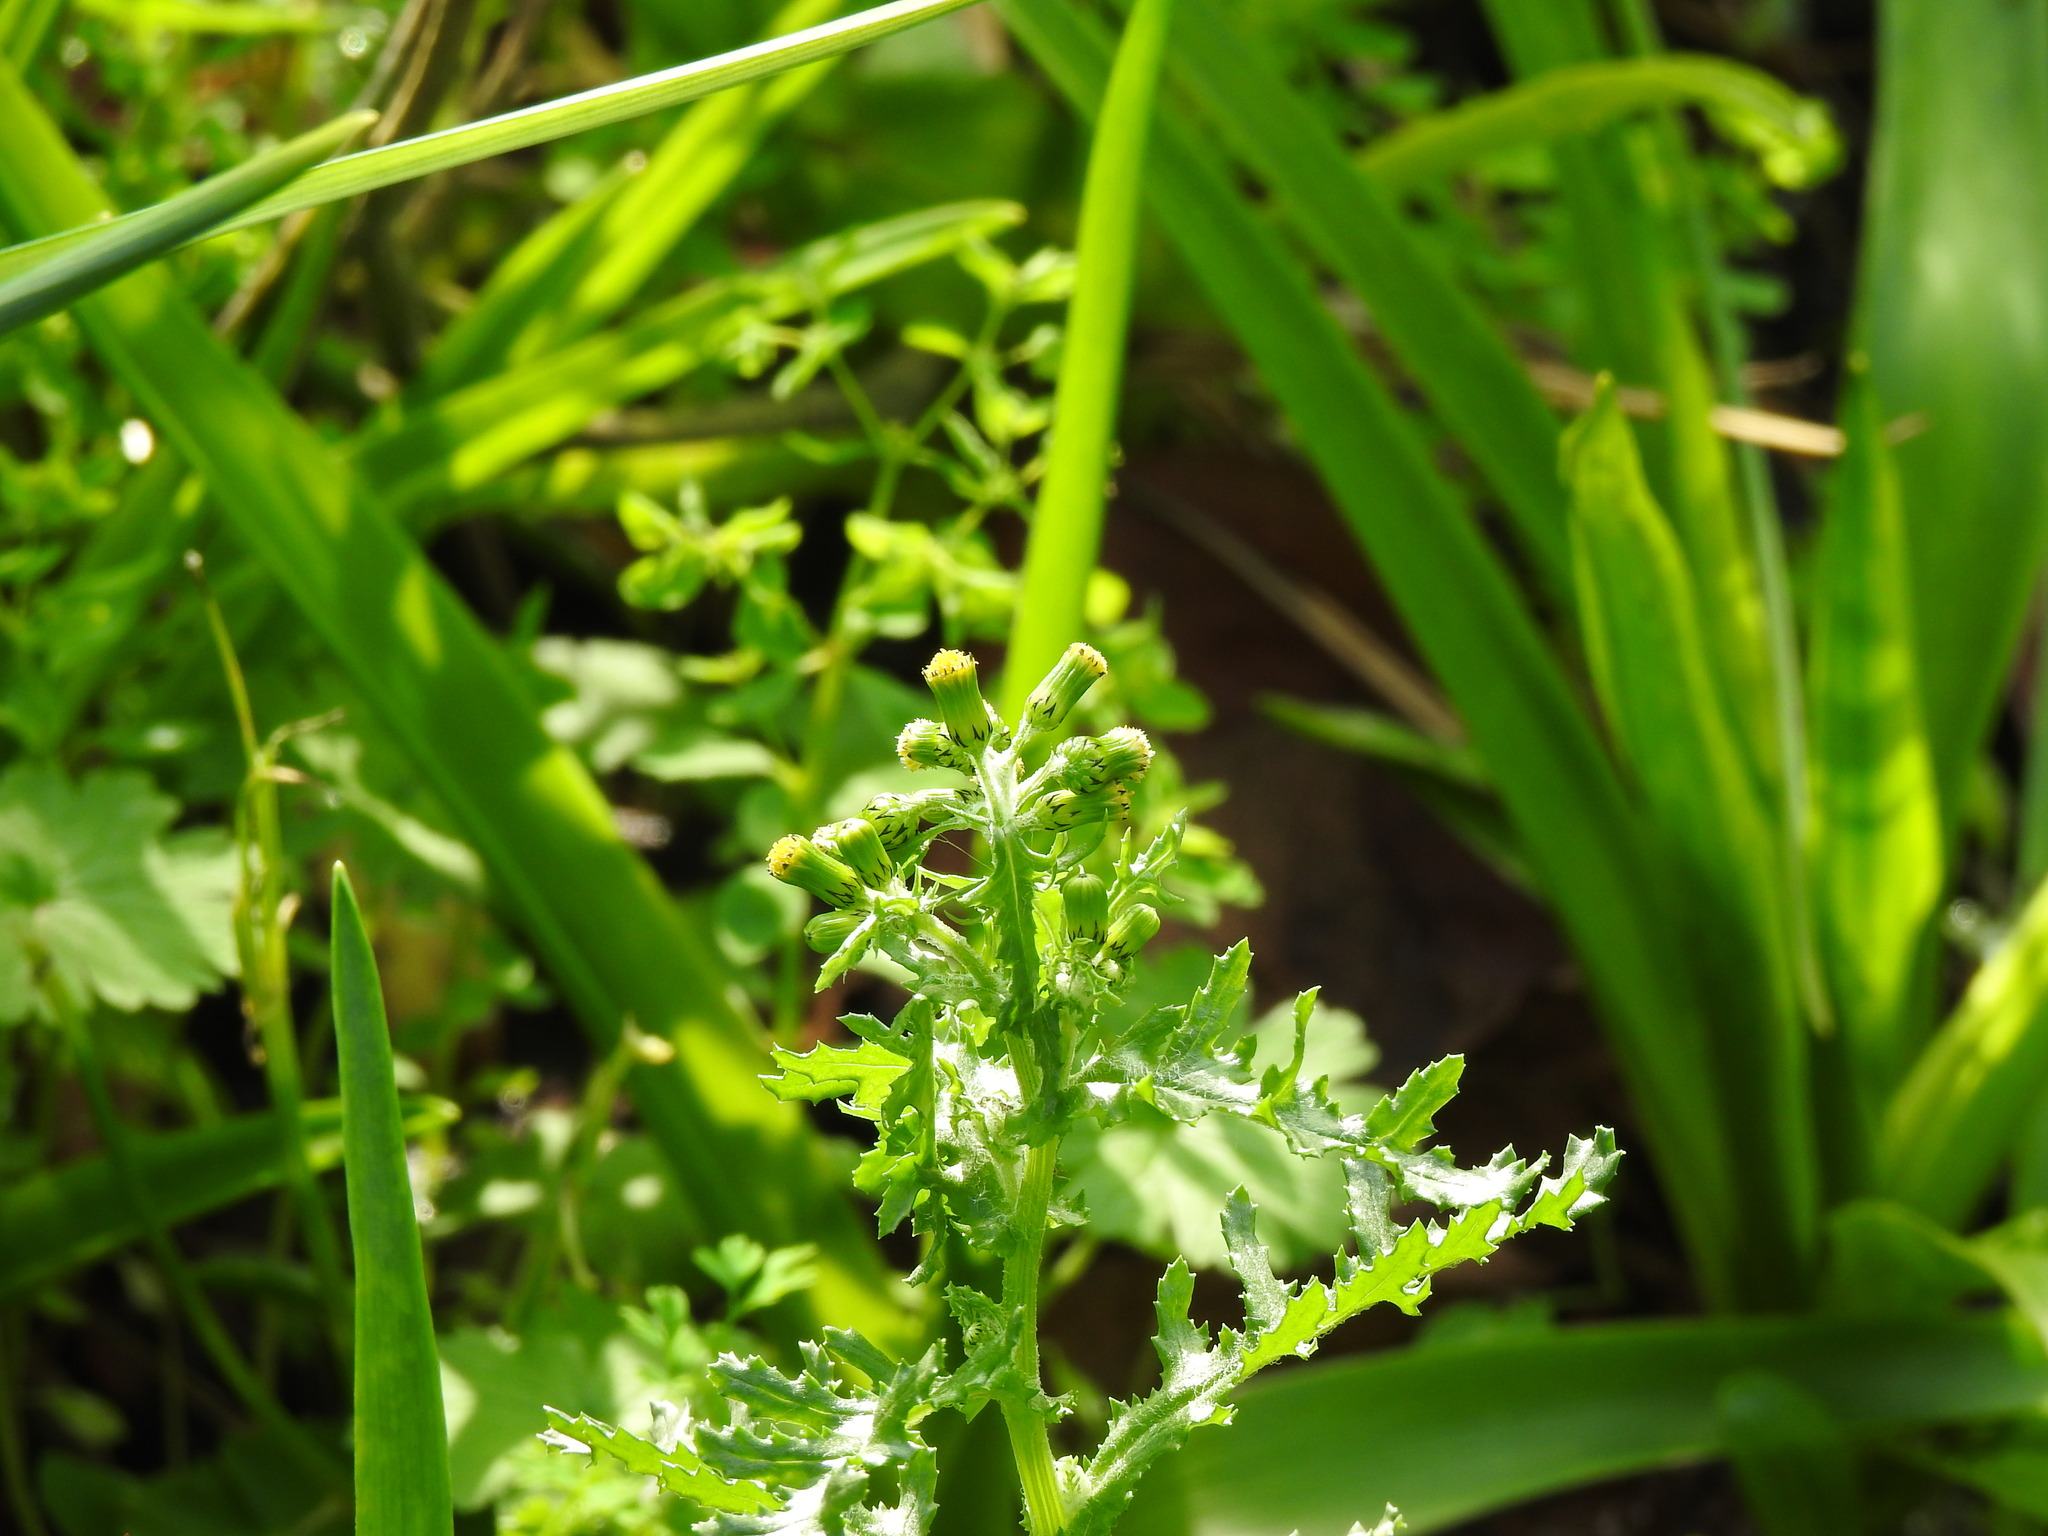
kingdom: Plantae
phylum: Tracheophyta
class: Magnoliopsida
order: Asterales
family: Asteraceae
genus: Senecio
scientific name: Senecio vulgaris
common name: Old-man-in-the-spring
